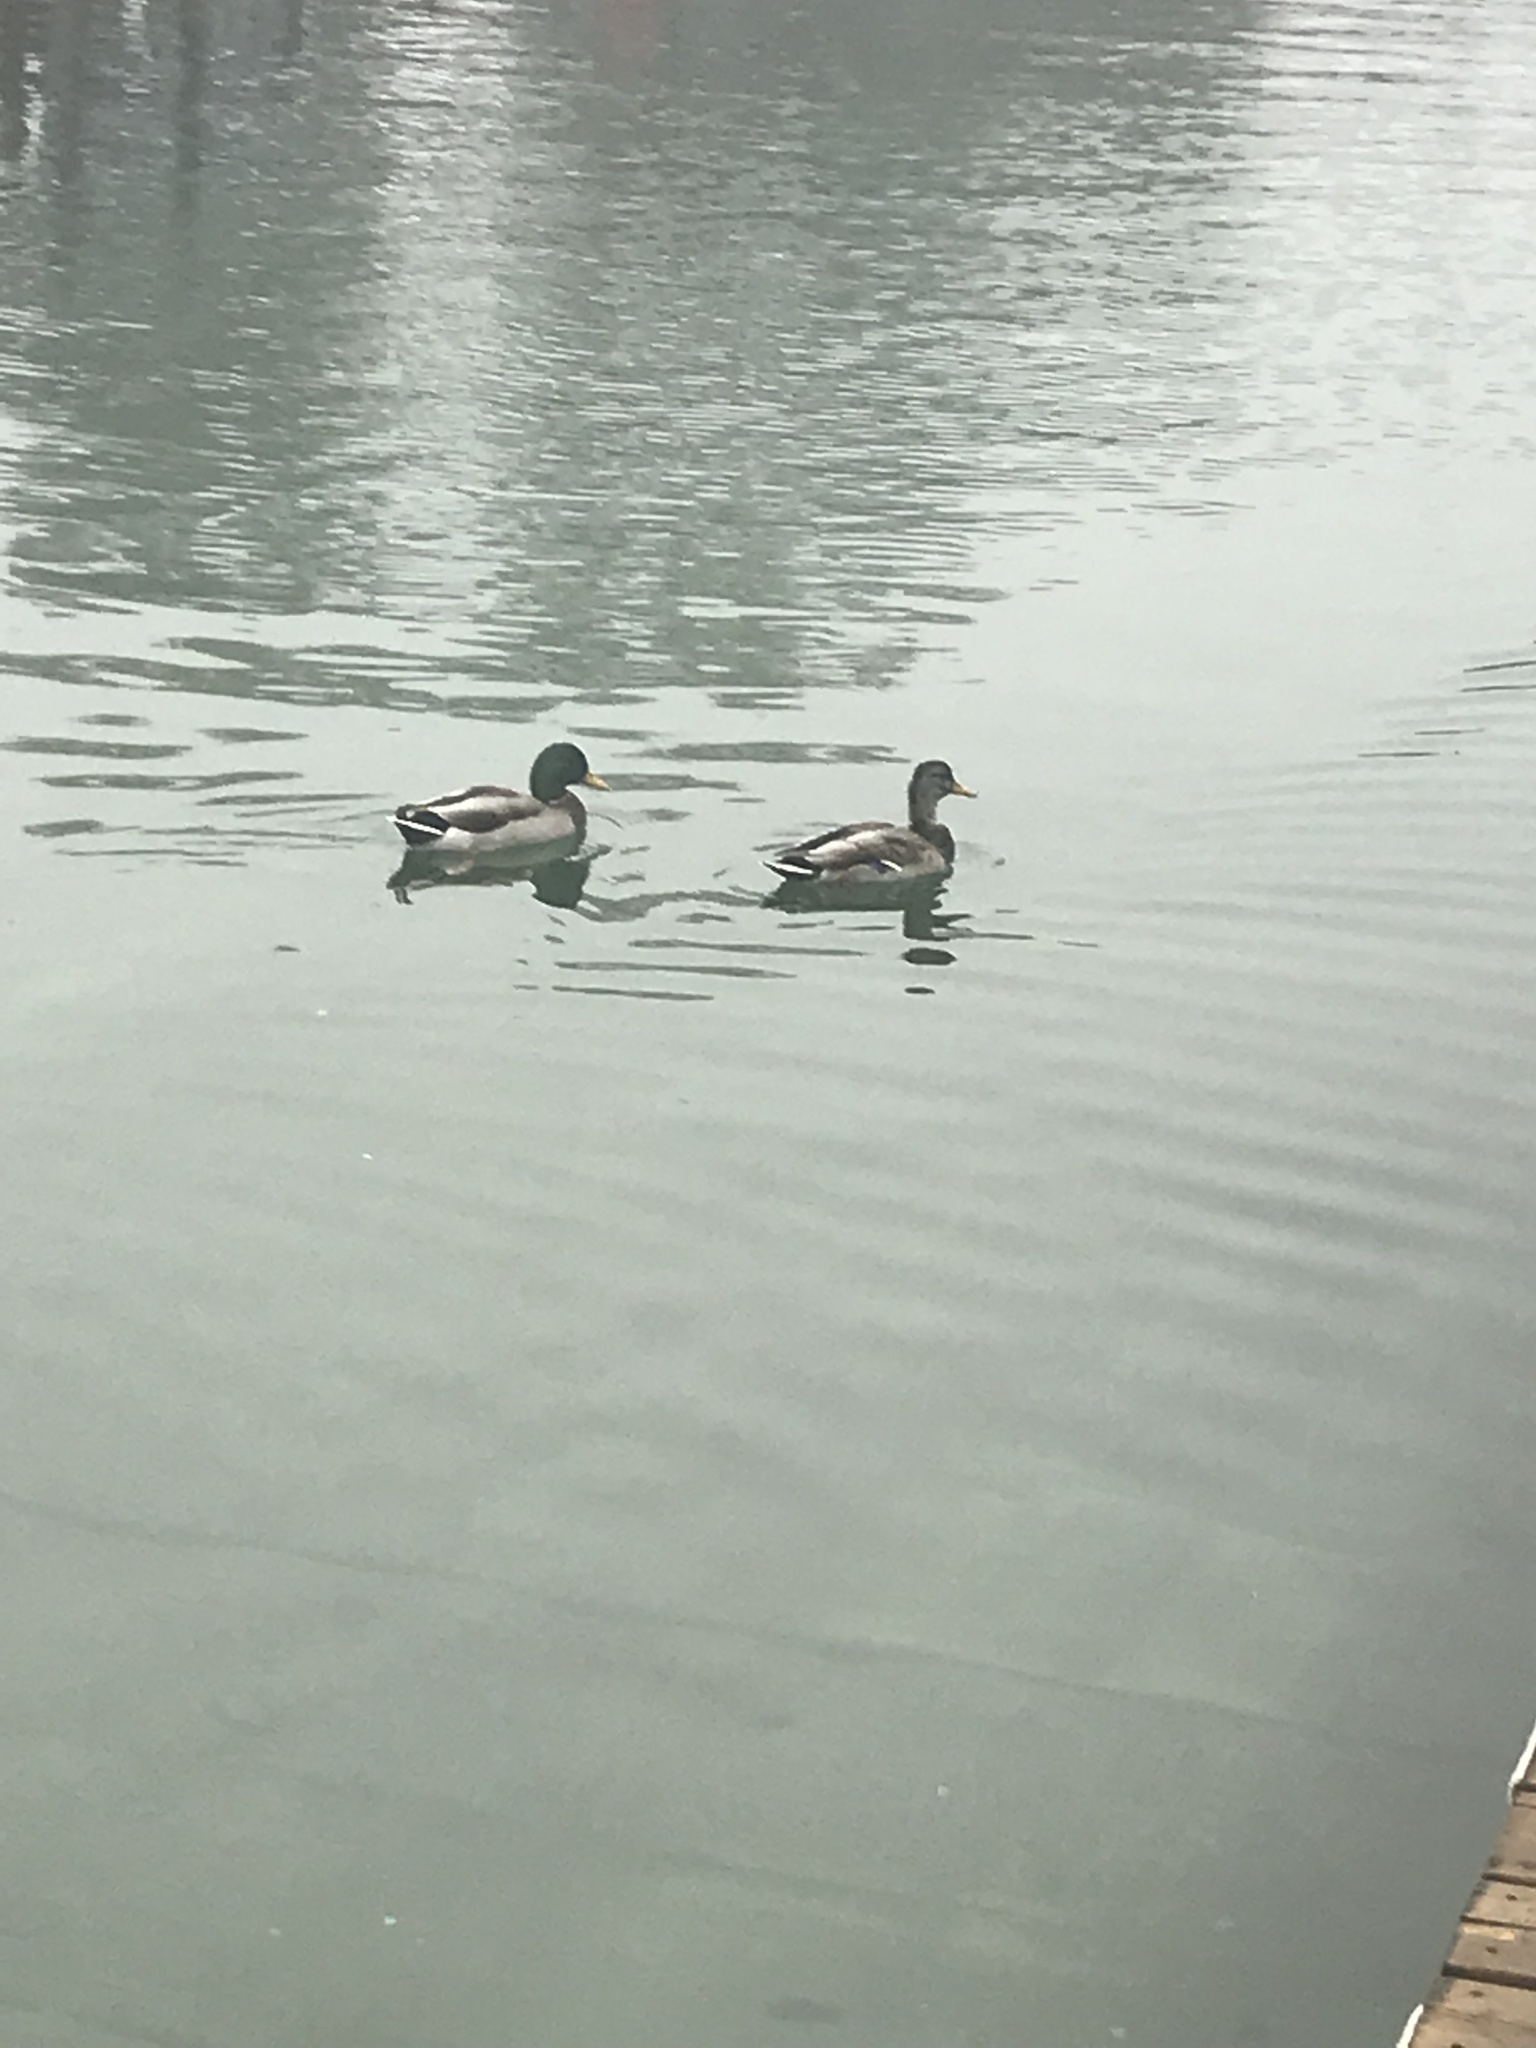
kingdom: Animalia
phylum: Chordata
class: Aves
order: Anseriformes
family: Anatidae
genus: Anas
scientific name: Anas platyrhynchos
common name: Mallard
